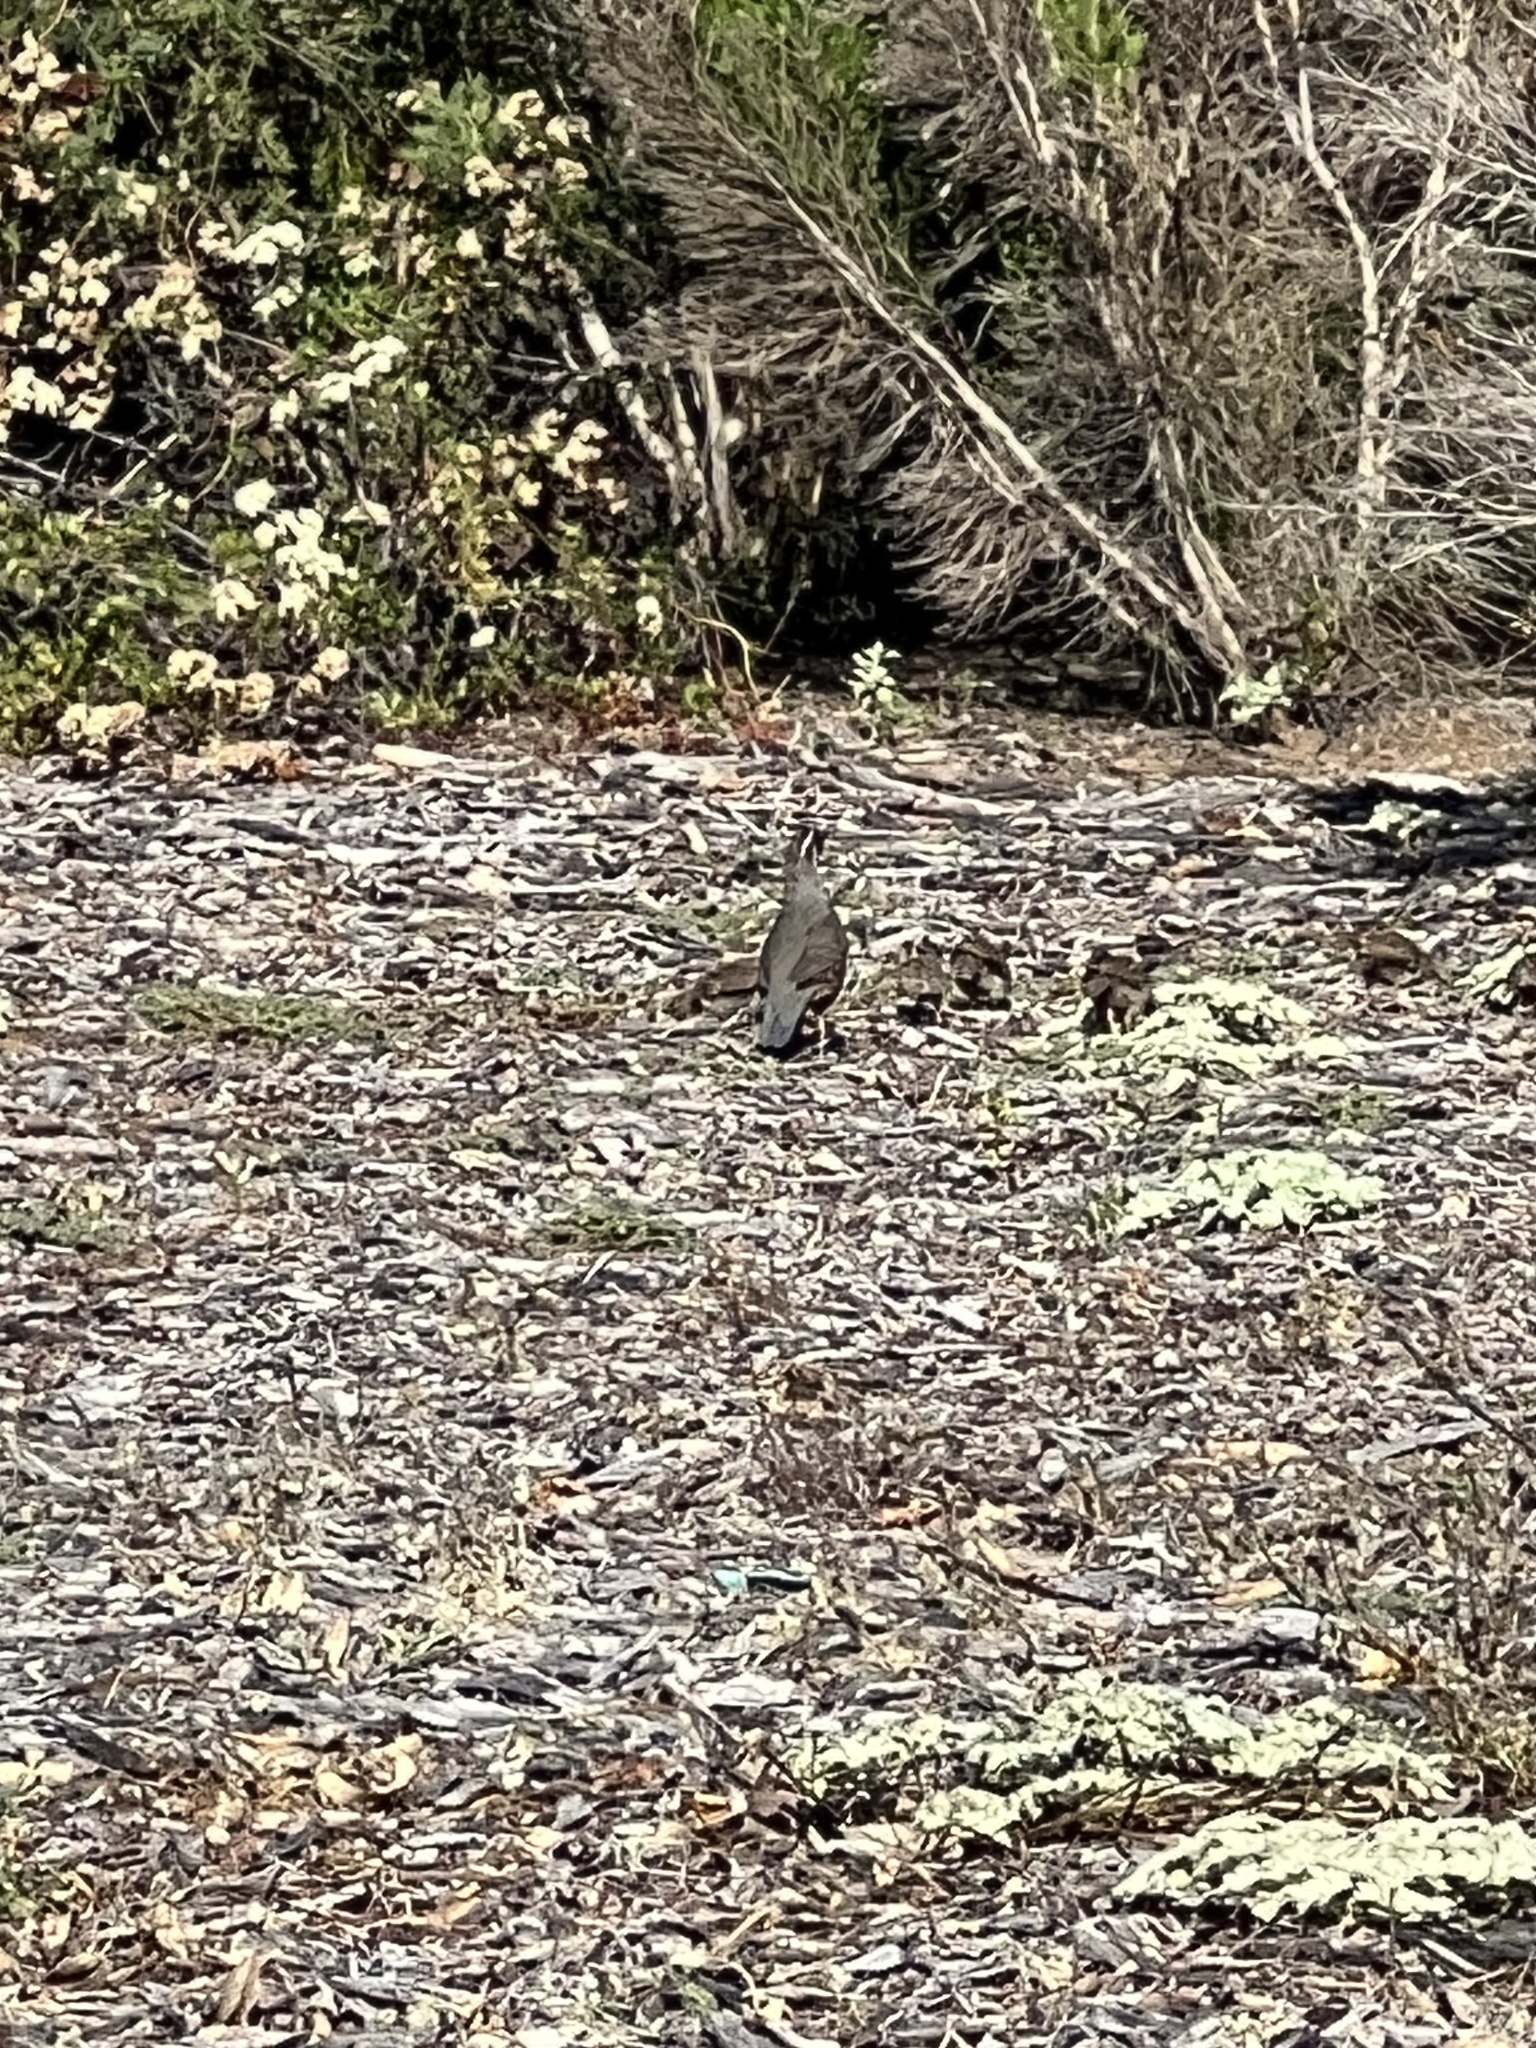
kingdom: Animalia
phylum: Chordata
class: Aves
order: Galliformes
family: Odontophoridae
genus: Callipepla
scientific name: Callipepla californica
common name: California quail
